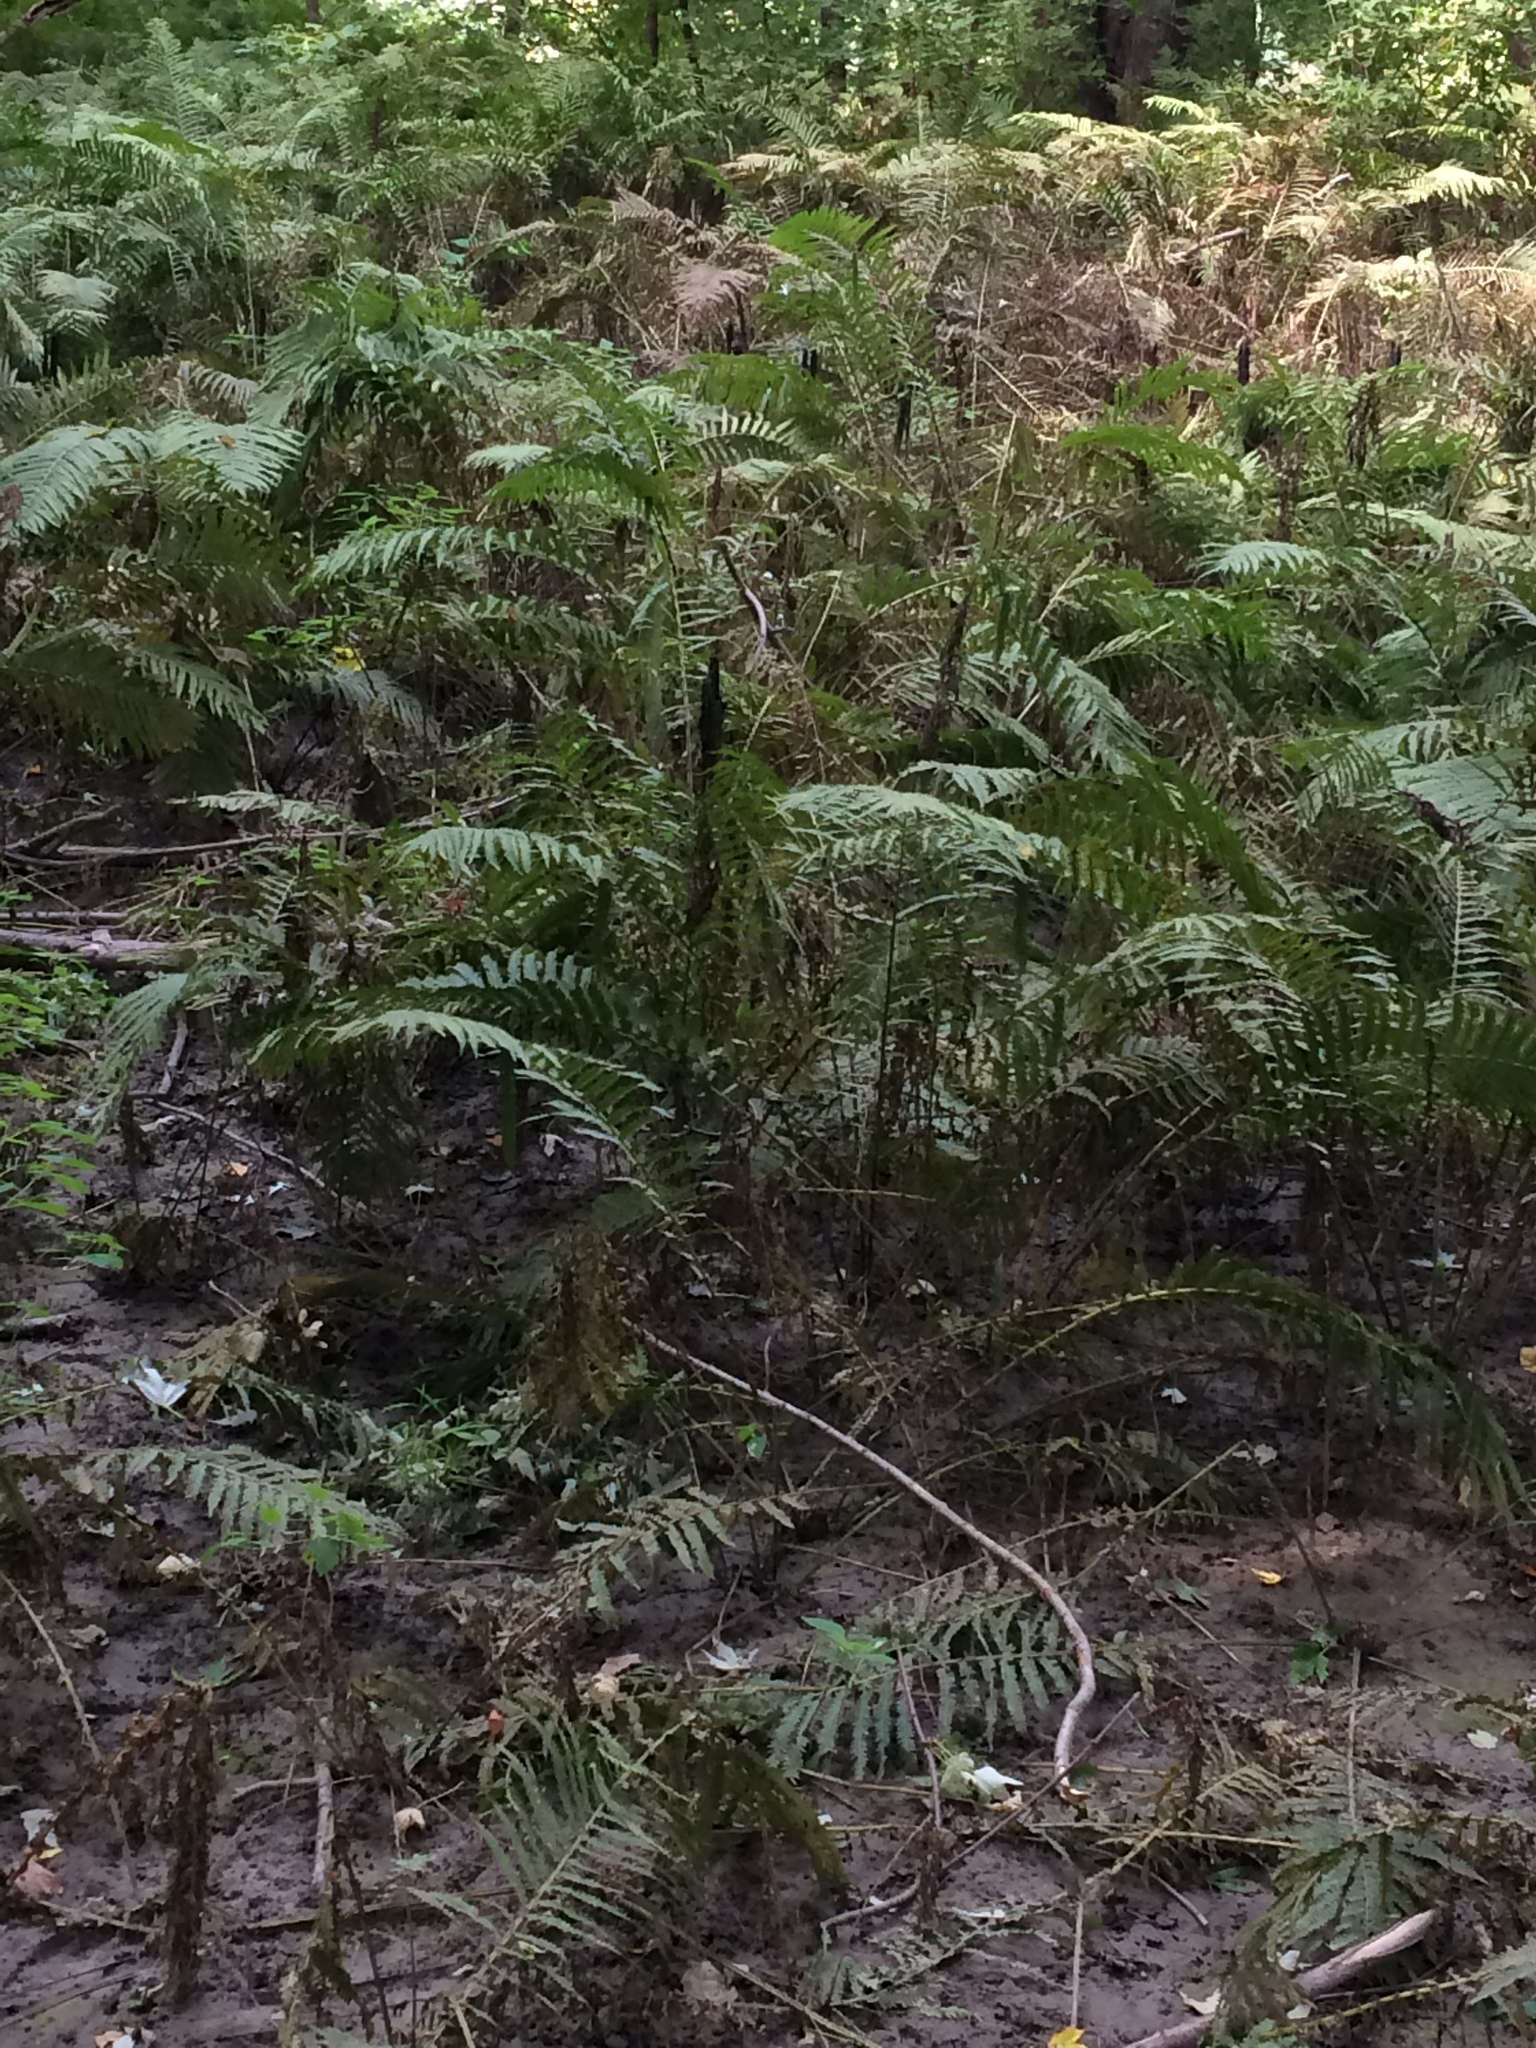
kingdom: Plantae
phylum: Tracheophyta
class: Polypodiopsida
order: Polypodiales
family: Onocleaceae
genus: Matteuccia
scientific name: Matteuccia struthiopteris
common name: Ostrich fern
